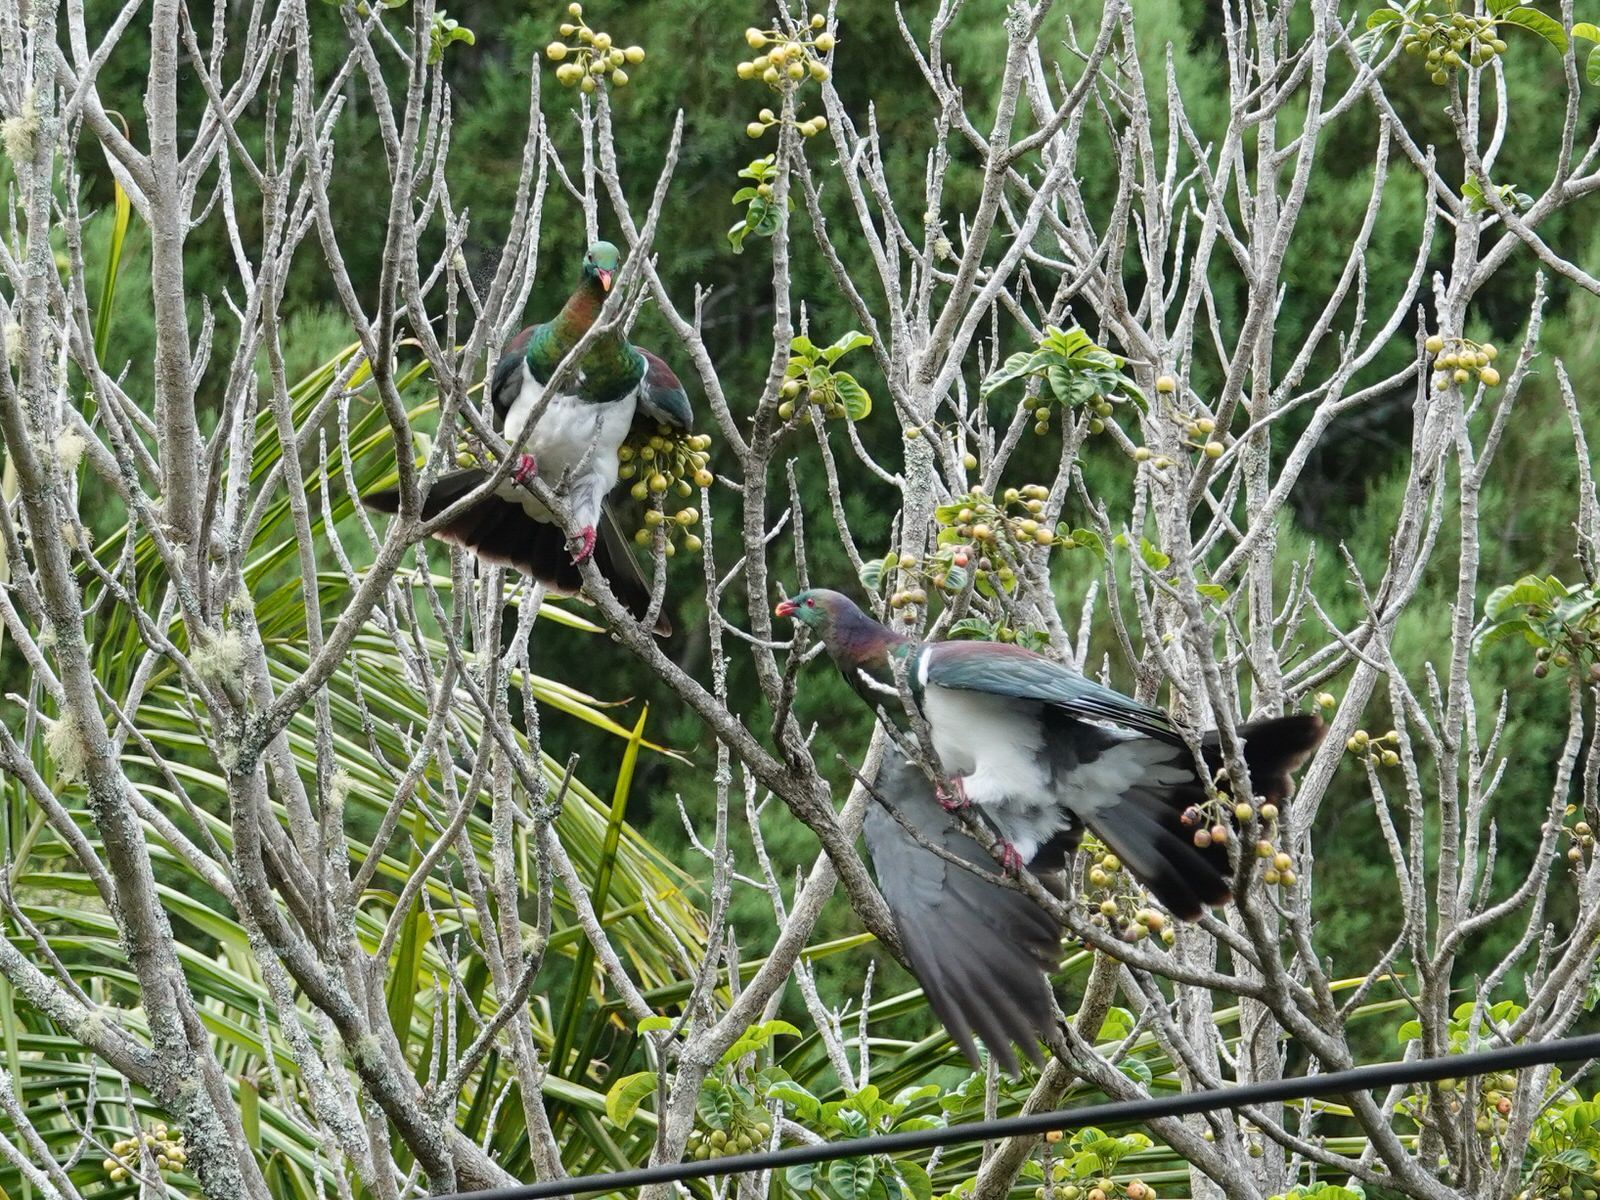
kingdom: Animalia
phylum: Chordata
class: Aves
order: Columbiformes
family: Columbidae
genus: Hemiphaga
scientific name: Hemiphaga novaeseelandiae
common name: New zealand pigeon
